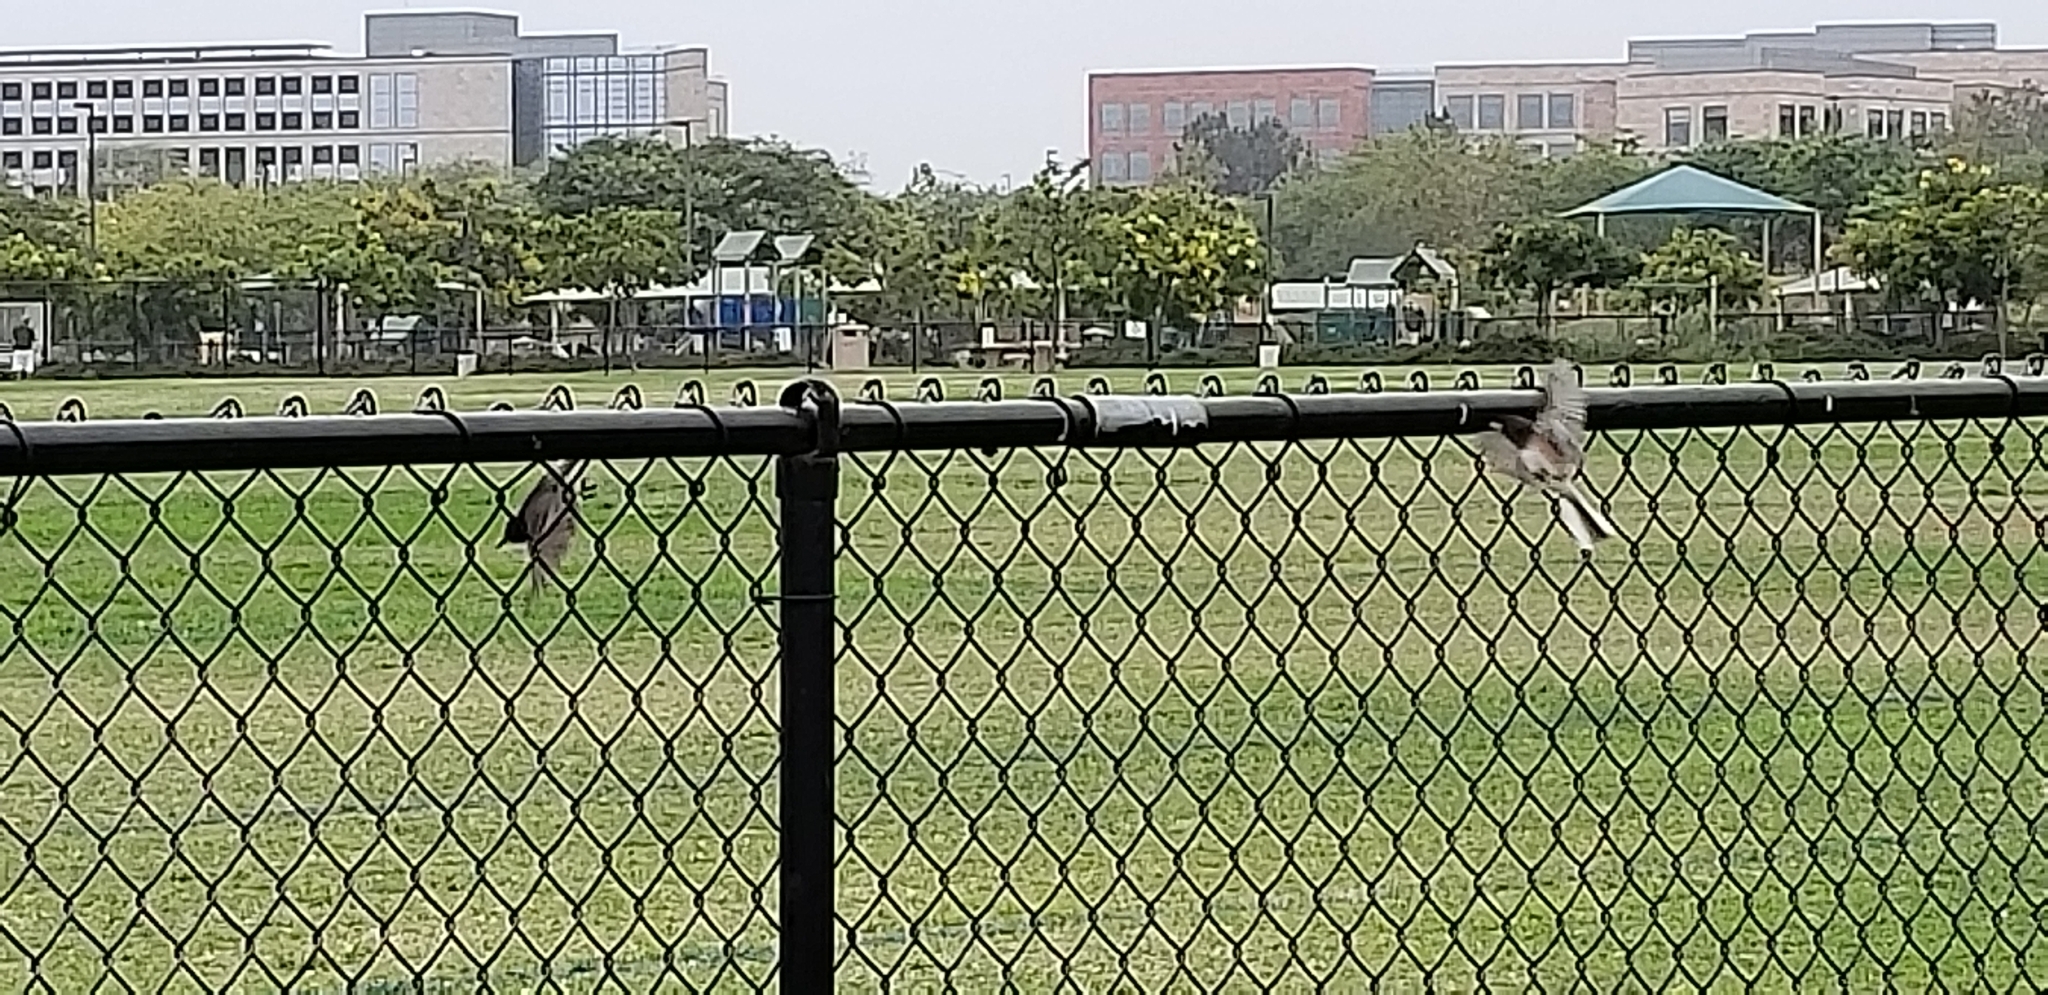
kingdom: Animalia
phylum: Chordata
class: Aves
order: Passeriformes
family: Tyrannidae
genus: Sayornis
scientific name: Sayornis nigricans
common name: Black phoebe
